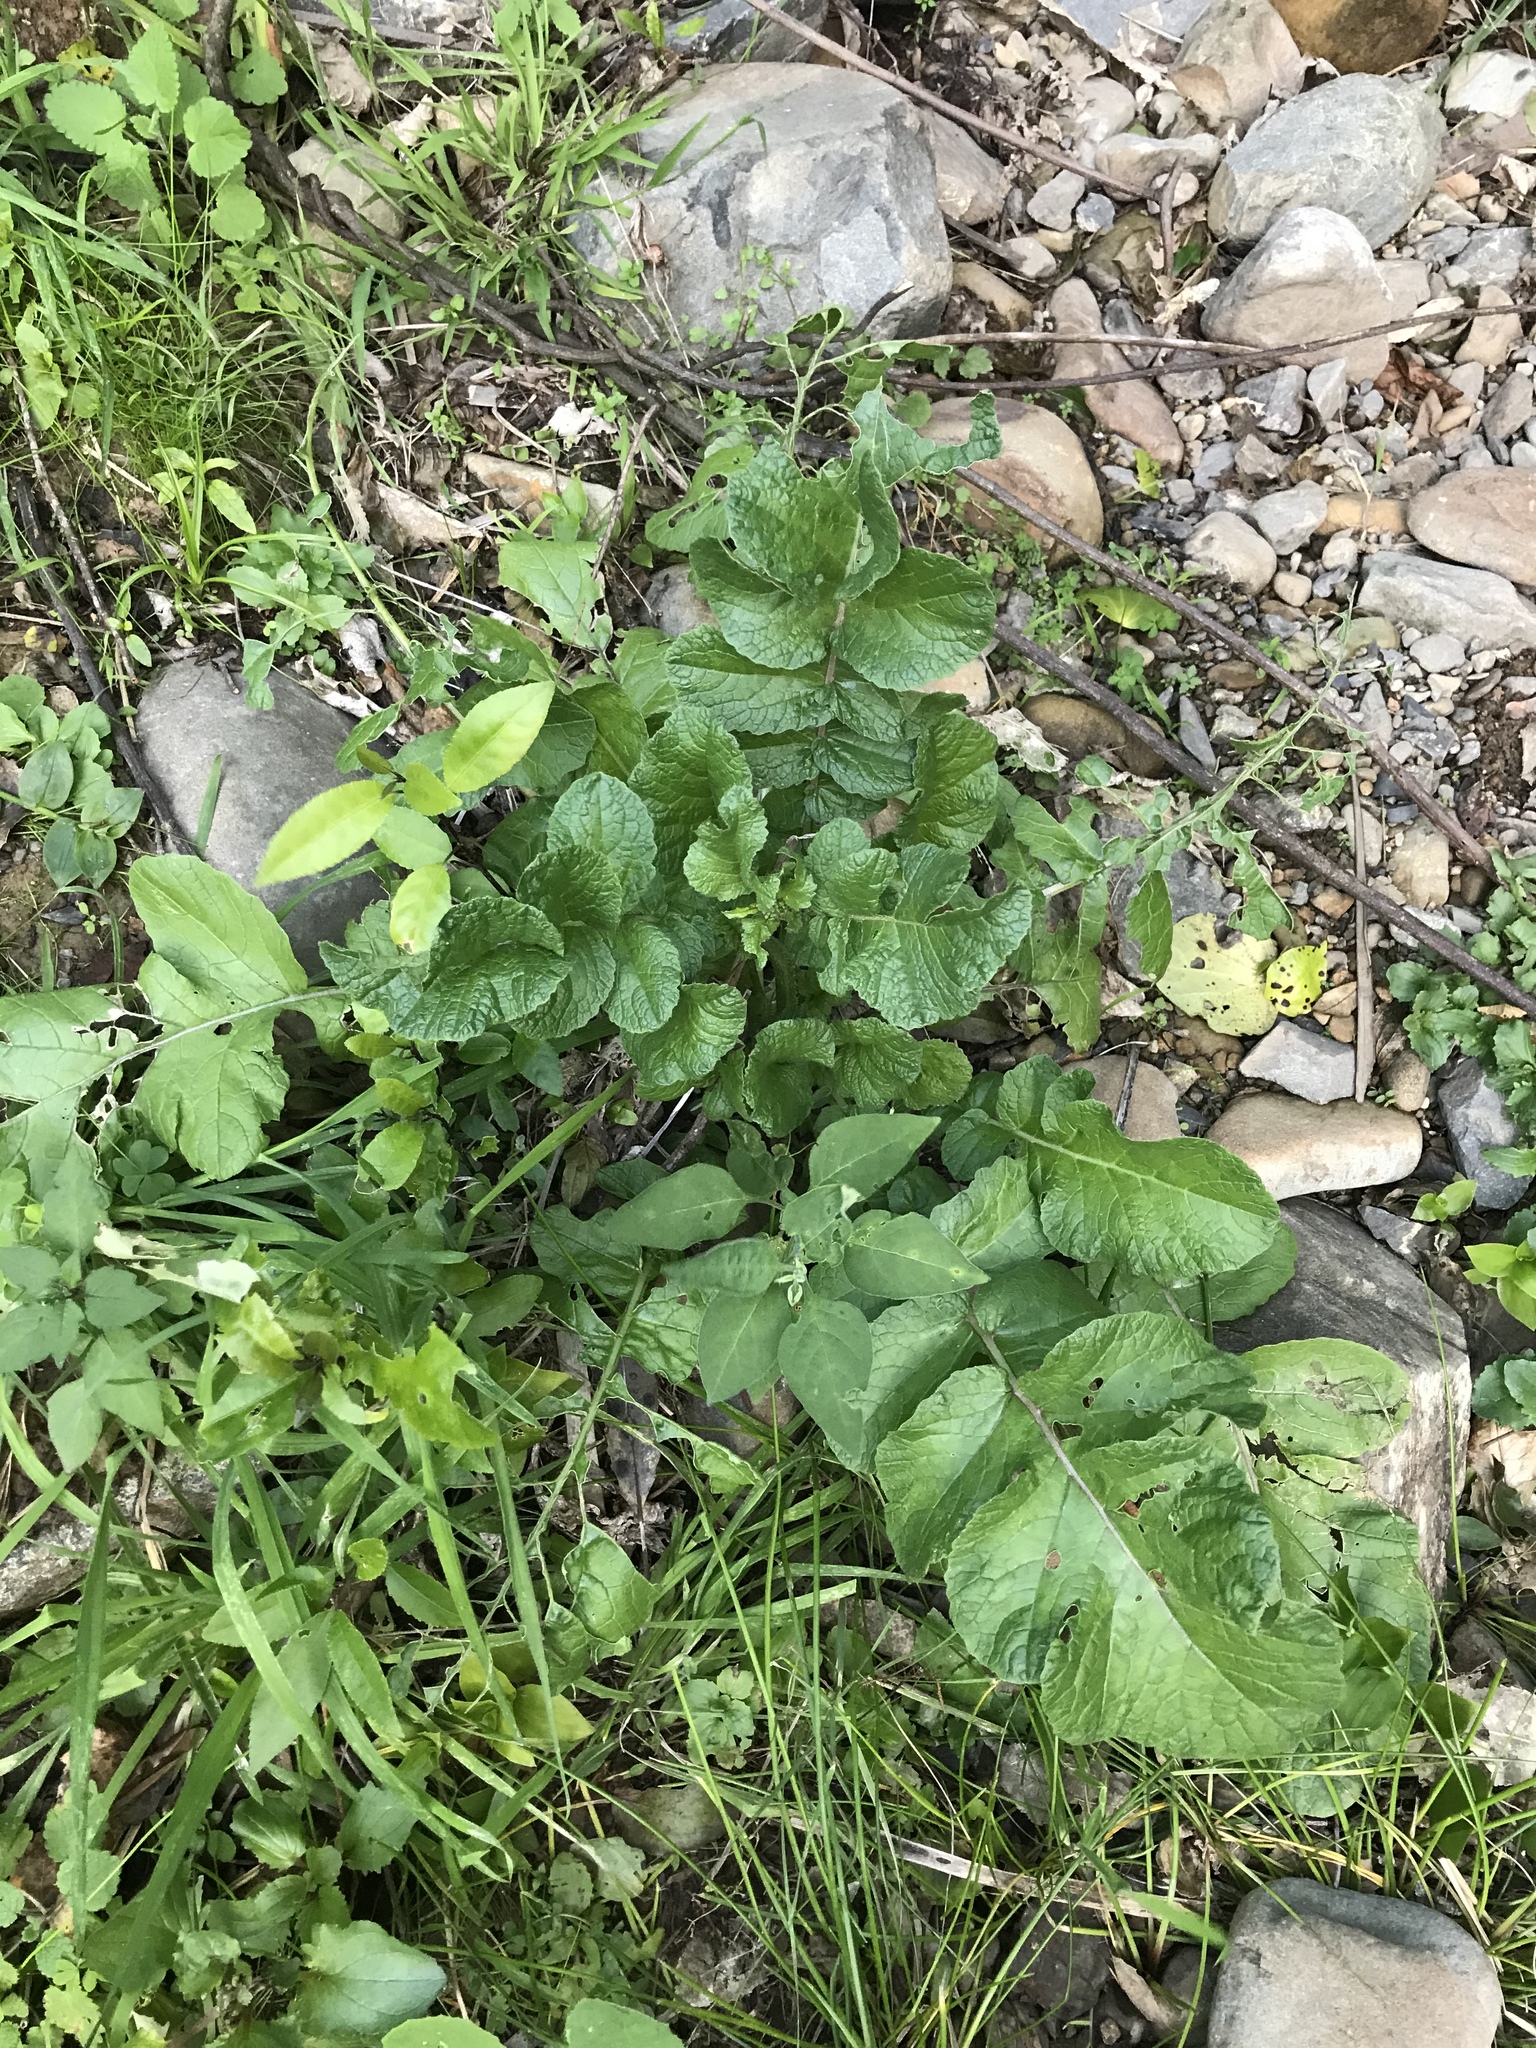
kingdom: Plantae
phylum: Tracheophyta
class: Magnoliopsida
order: Brassicales
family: Brassicaceae
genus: Raphanus
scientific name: Raphanus raphanistrum
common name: Wild radish
